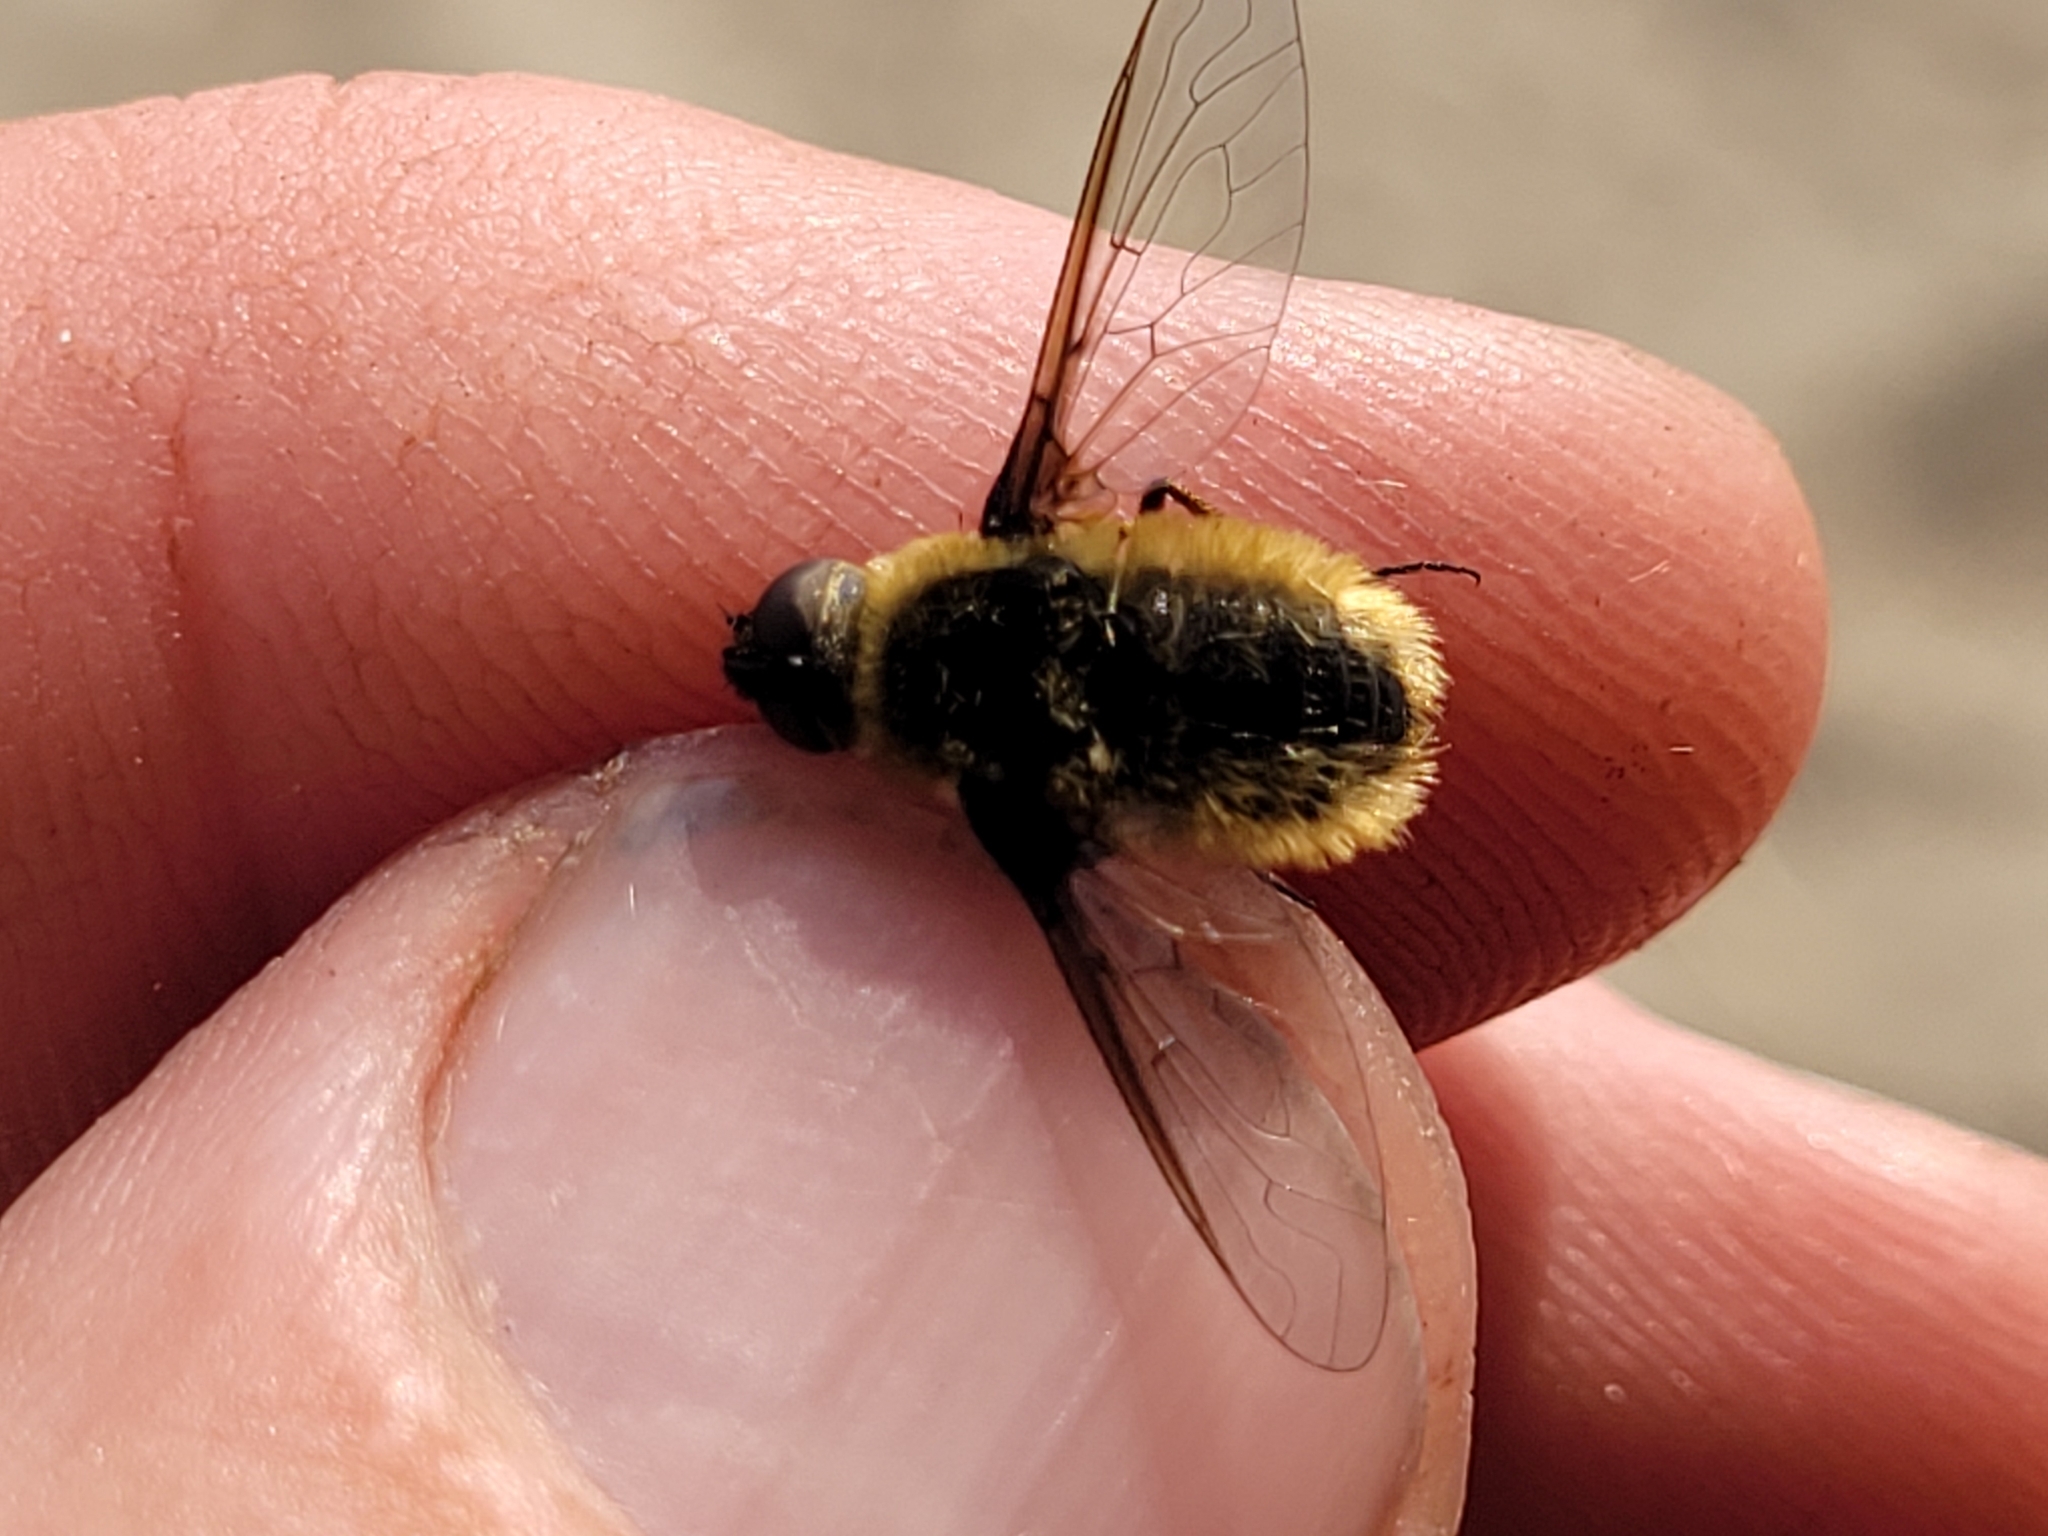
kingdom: Animalia
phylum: Arthropoda
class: Insecta
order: Diptera
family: Bombyliidae
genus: Villa
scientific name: Villa fulviana
